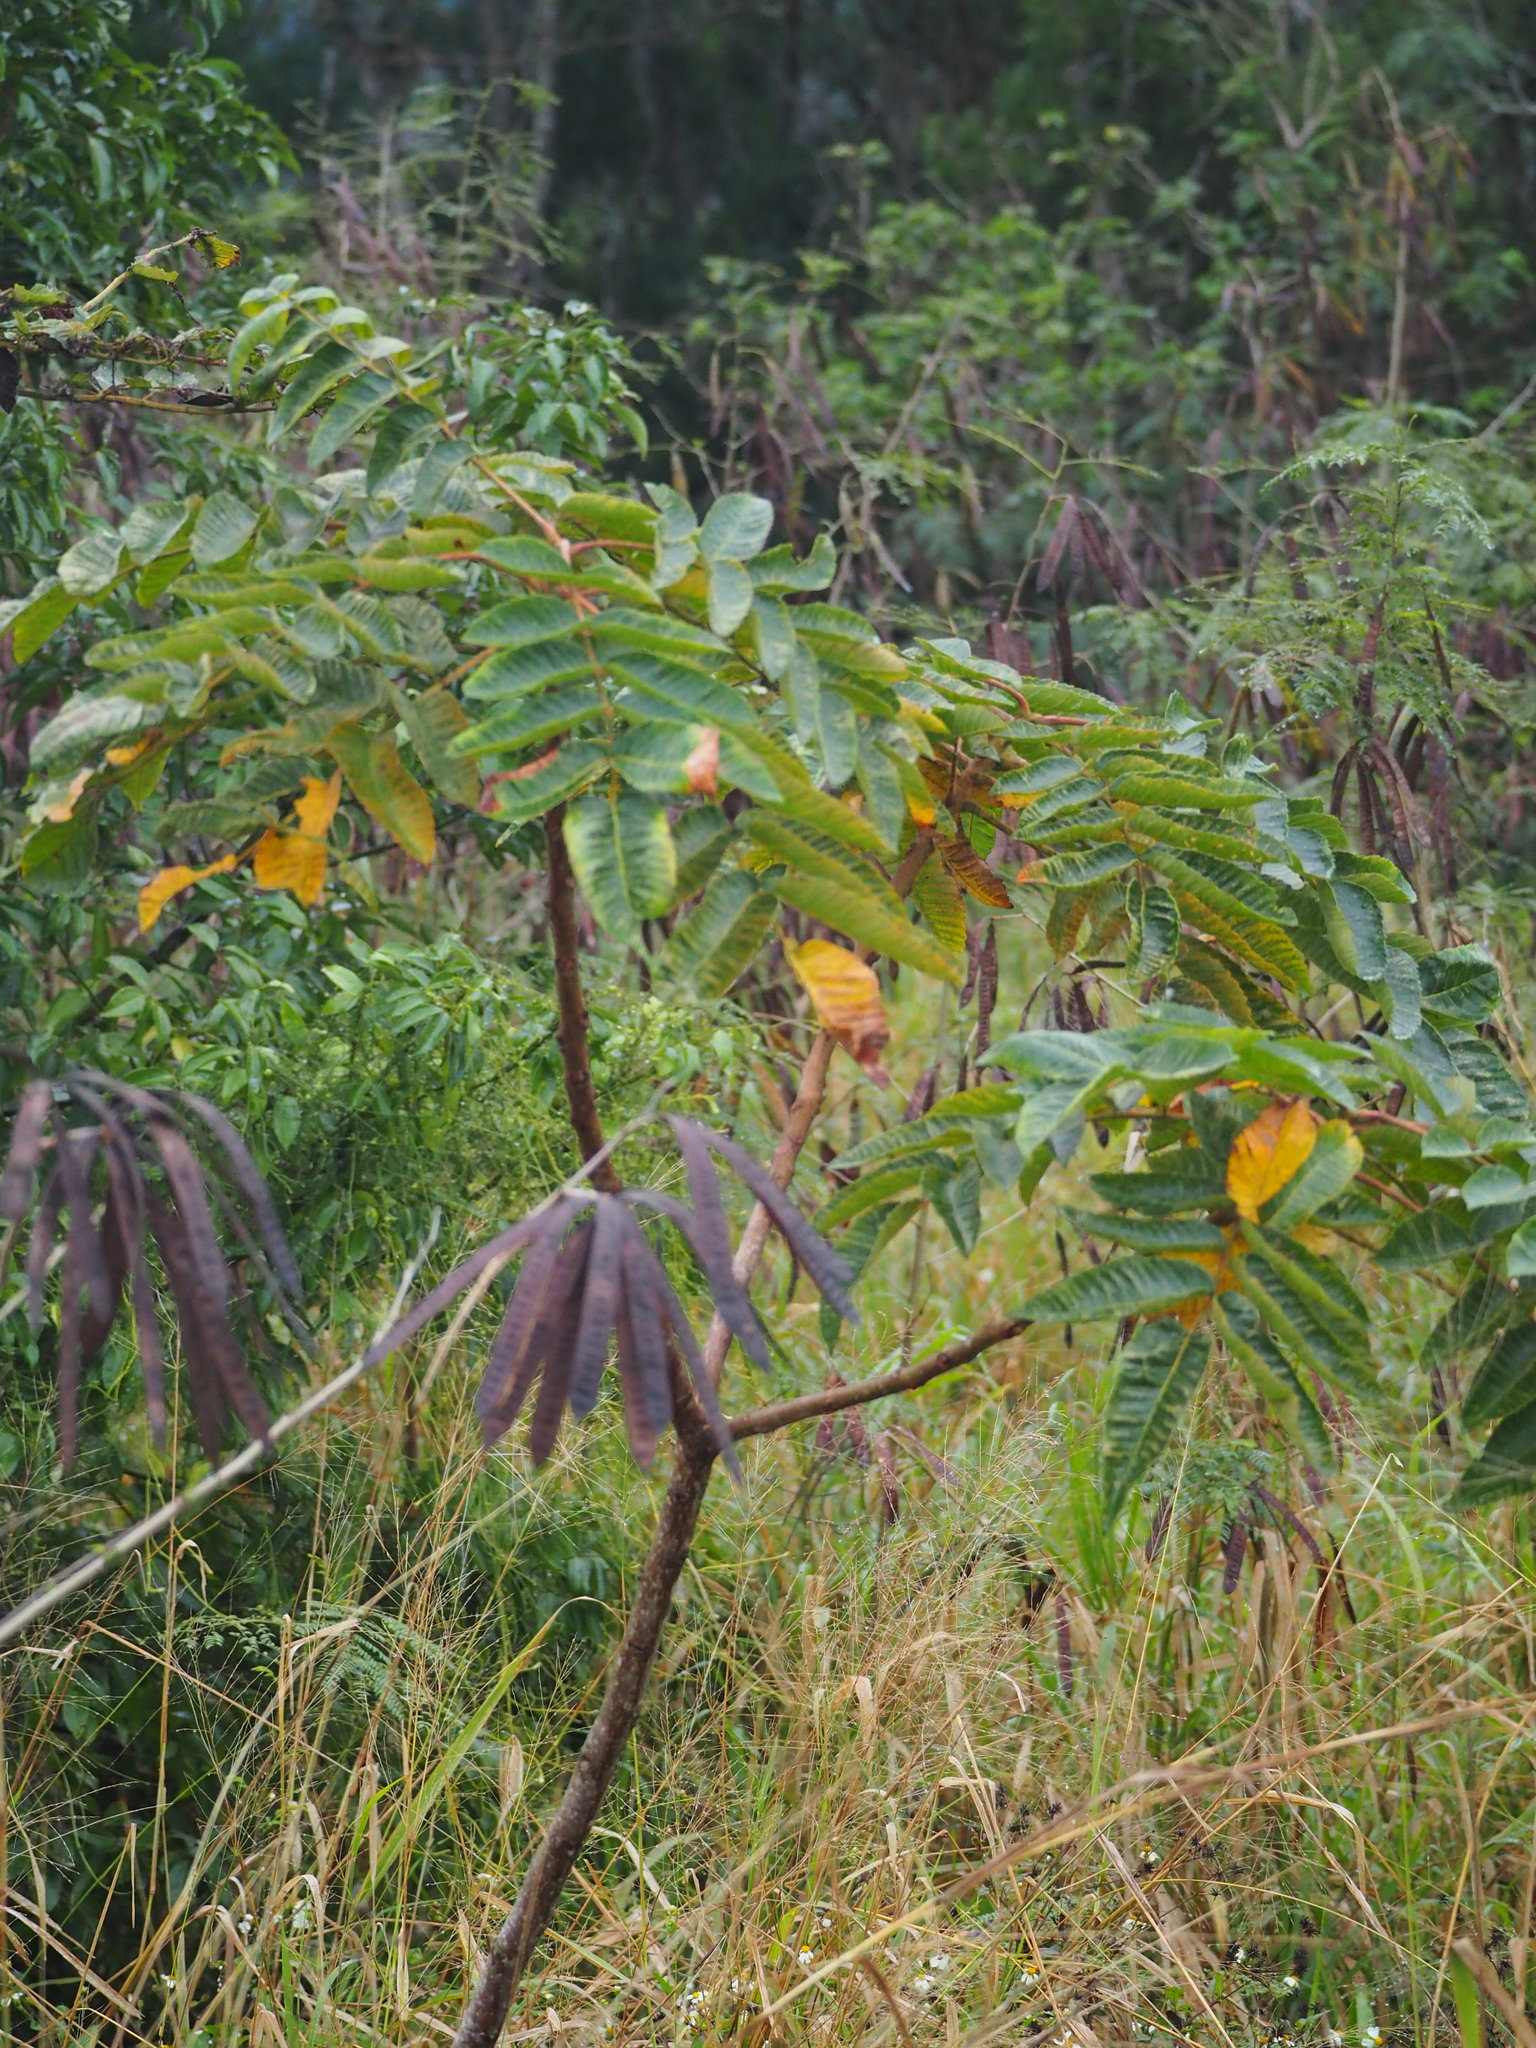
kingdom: Plantae
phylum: Tracheophyta
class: Magnoliopsida
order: Sapindales
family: Anacardiaceae
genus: Rhus
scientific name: Rhus chinensis
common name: Chinese gall
